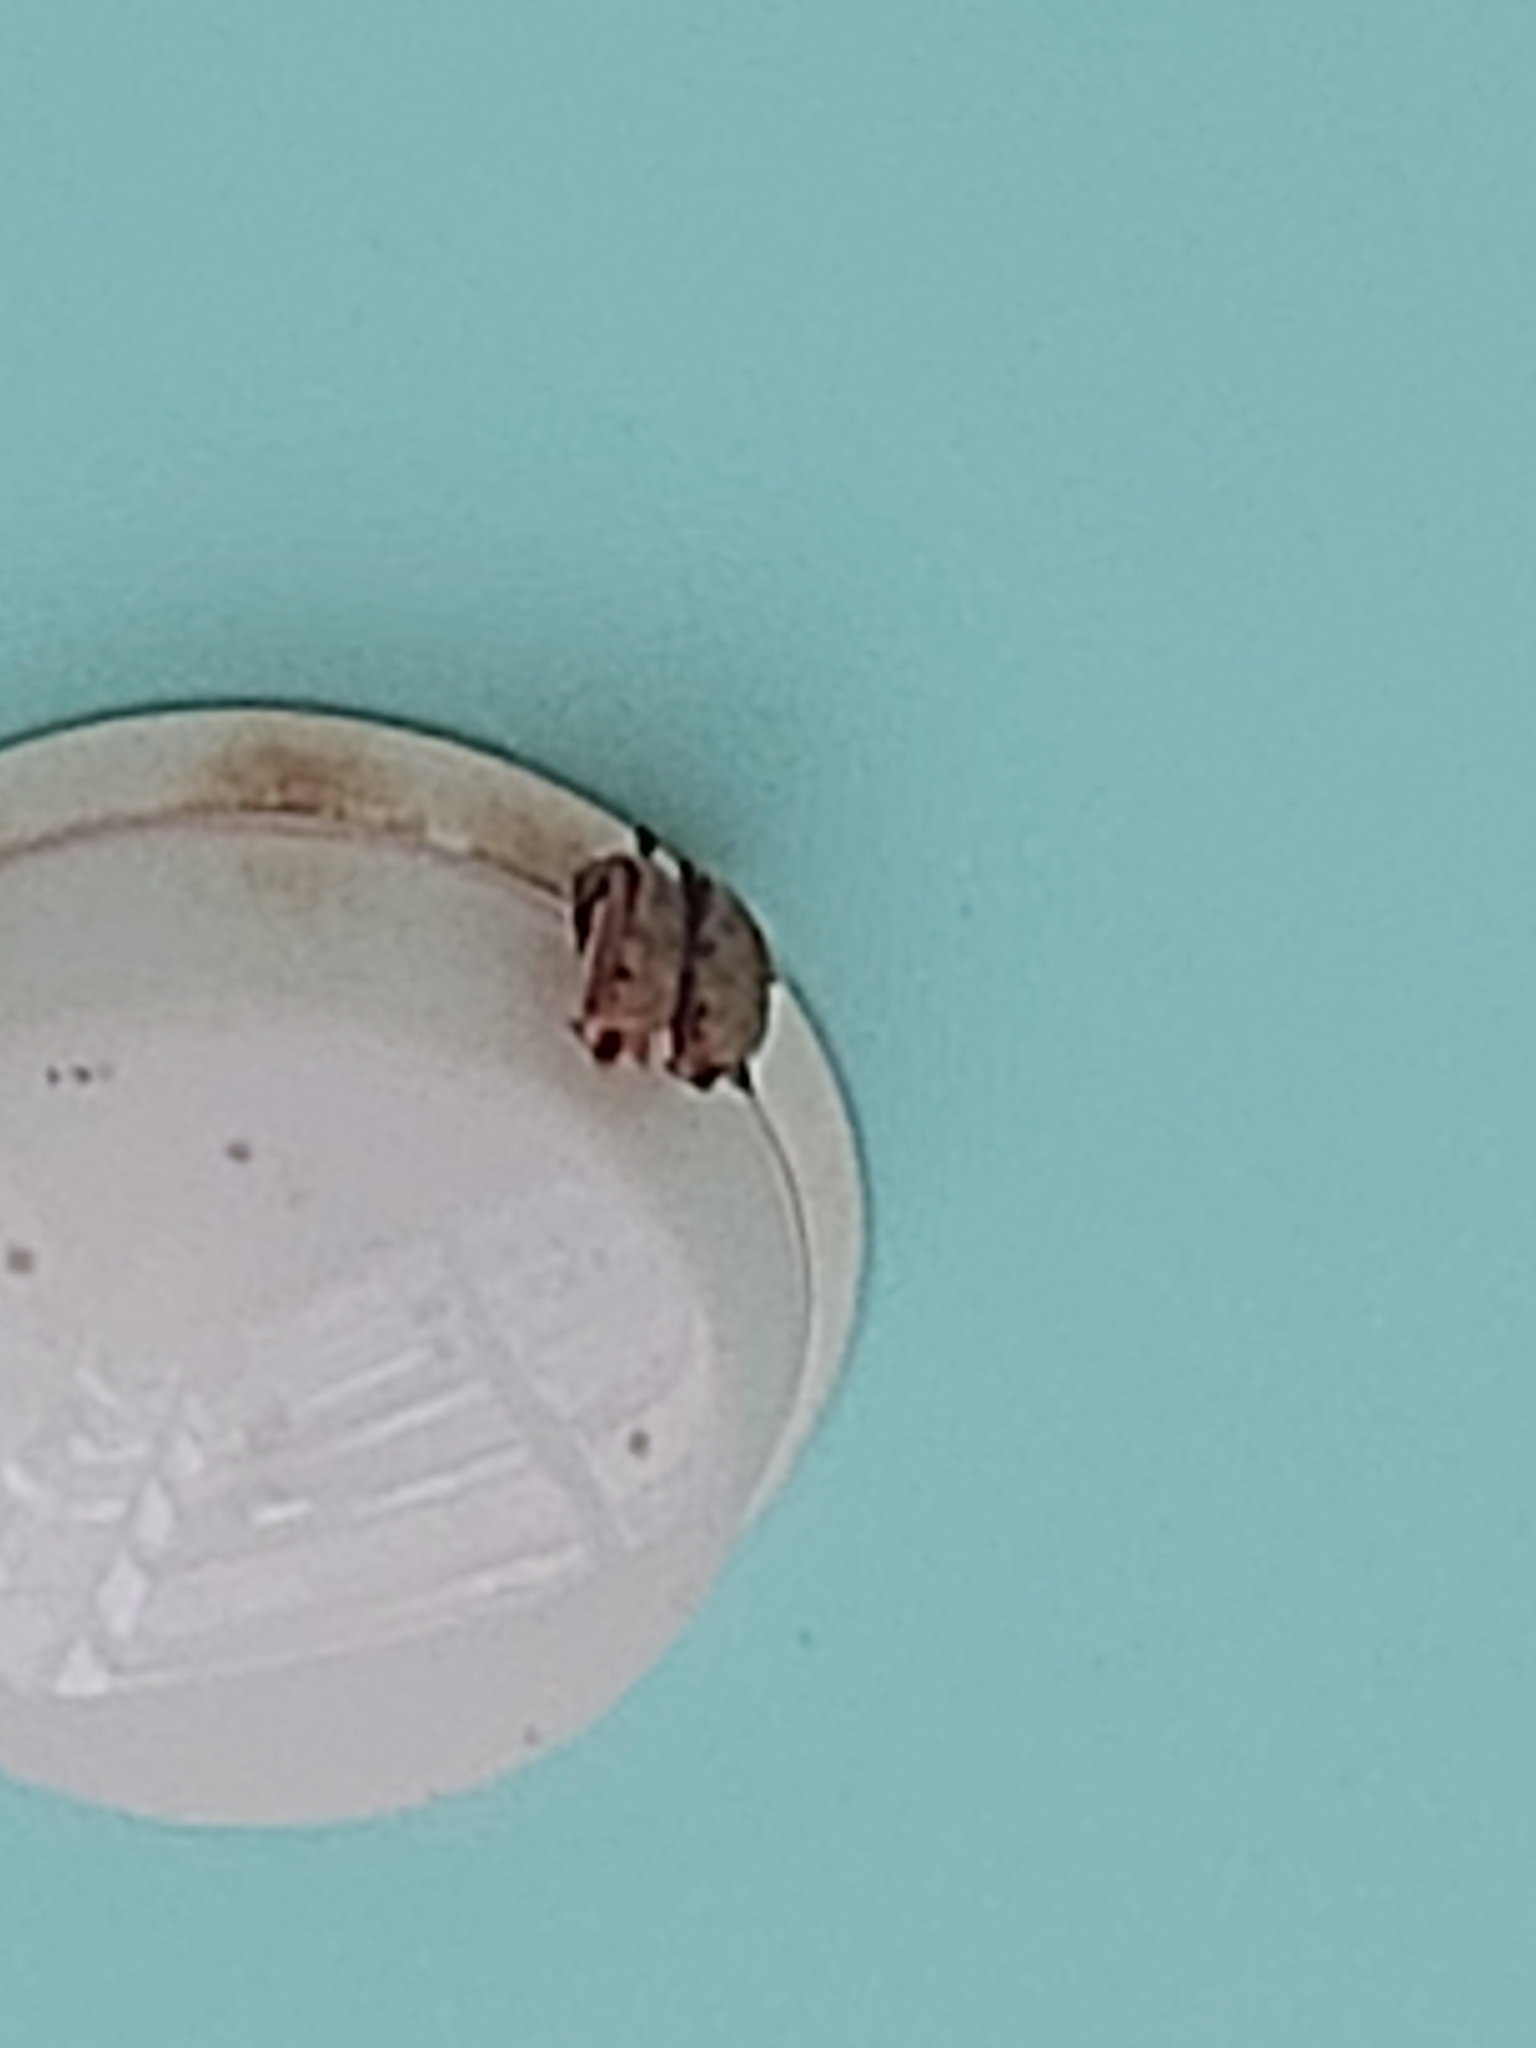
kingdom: Animalia
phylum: Chordata
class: Mammalia
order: Chiroptera
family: Vespertilionidae
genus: Myotis
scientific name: Myotis formosus
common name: Hodgson's myotis
